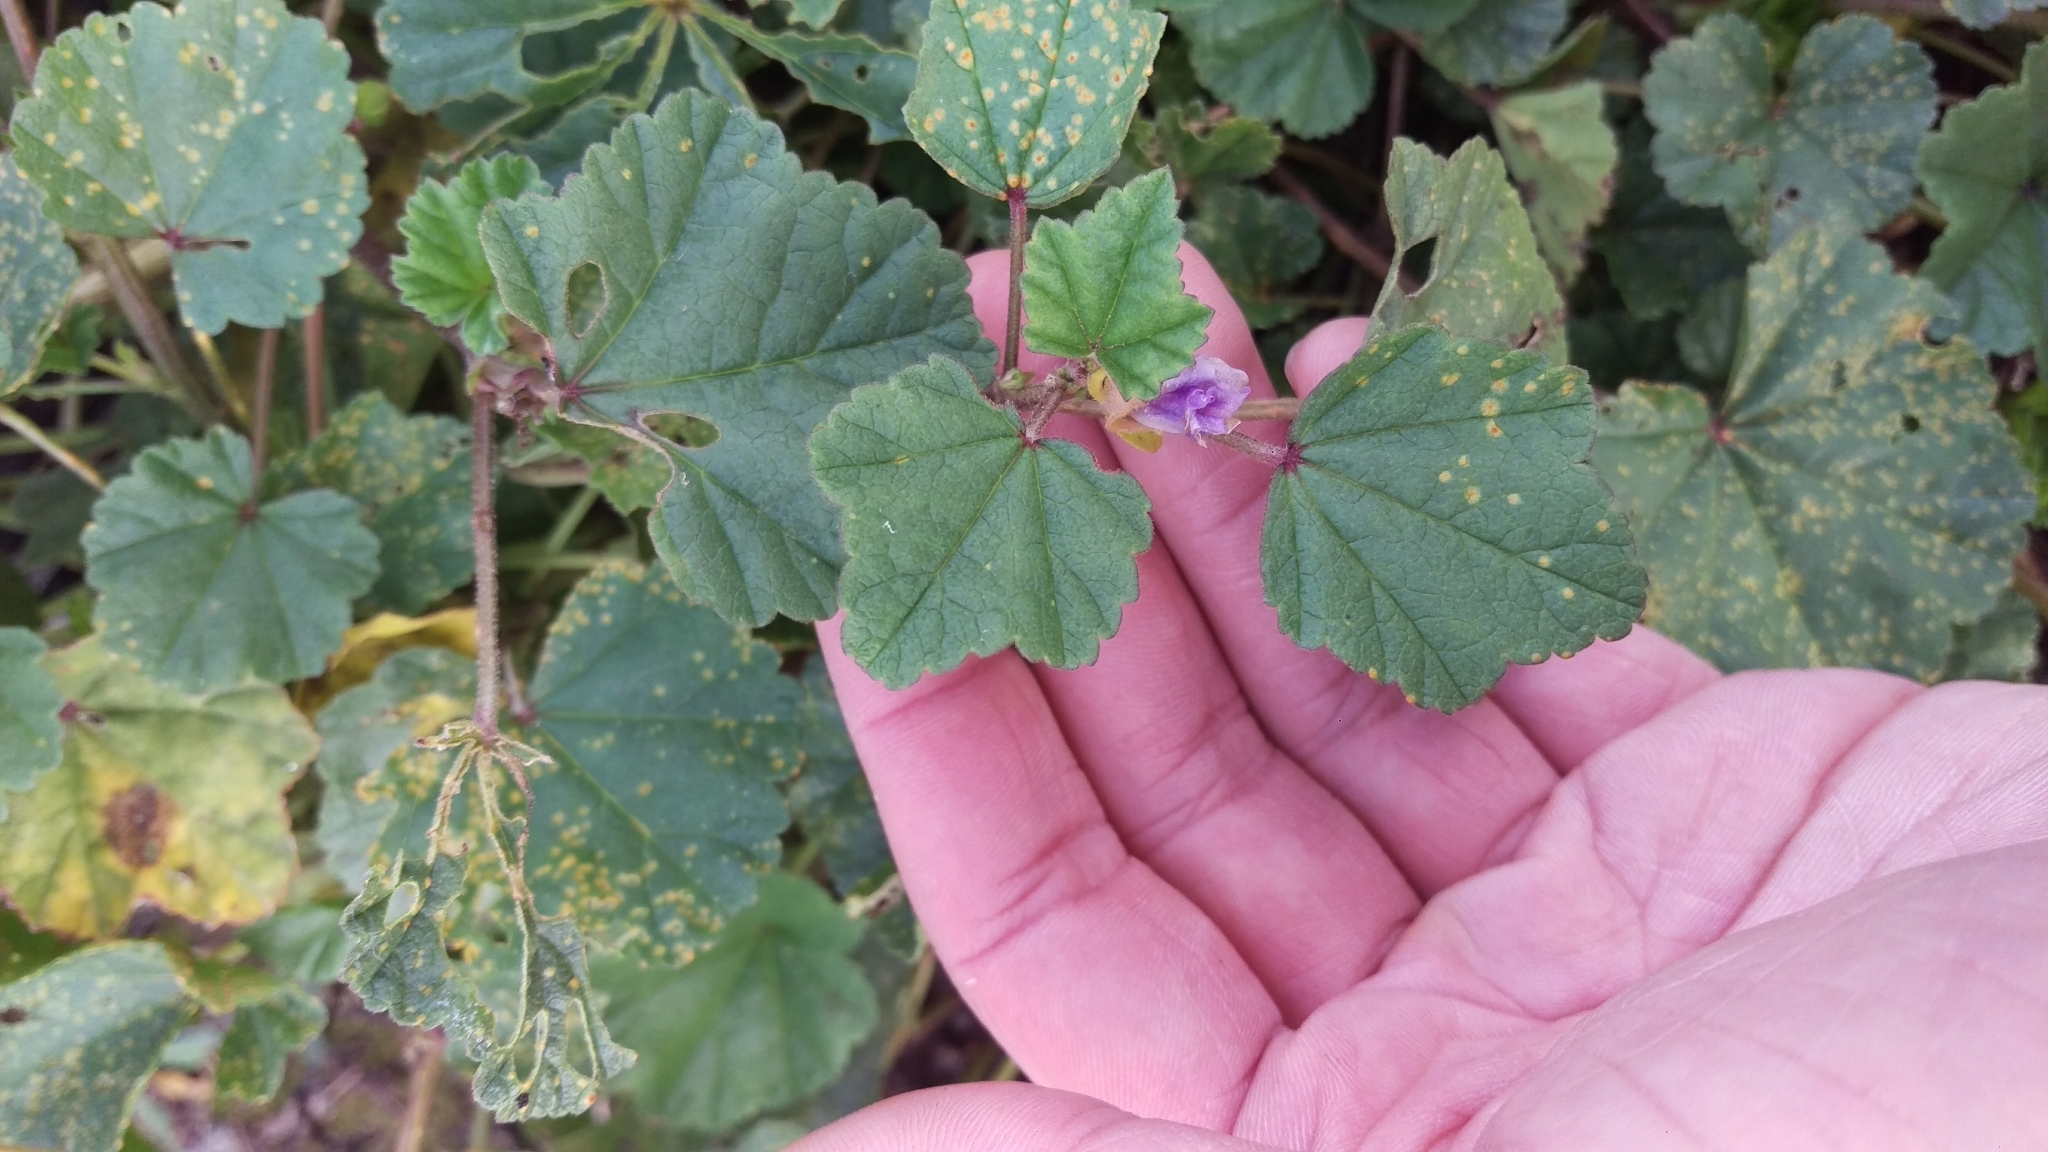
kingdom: Plantae
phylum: Tracheophyta
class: Magnoliopsida
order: Malvales
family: Malvaceae
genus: Malva
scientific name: Malva
